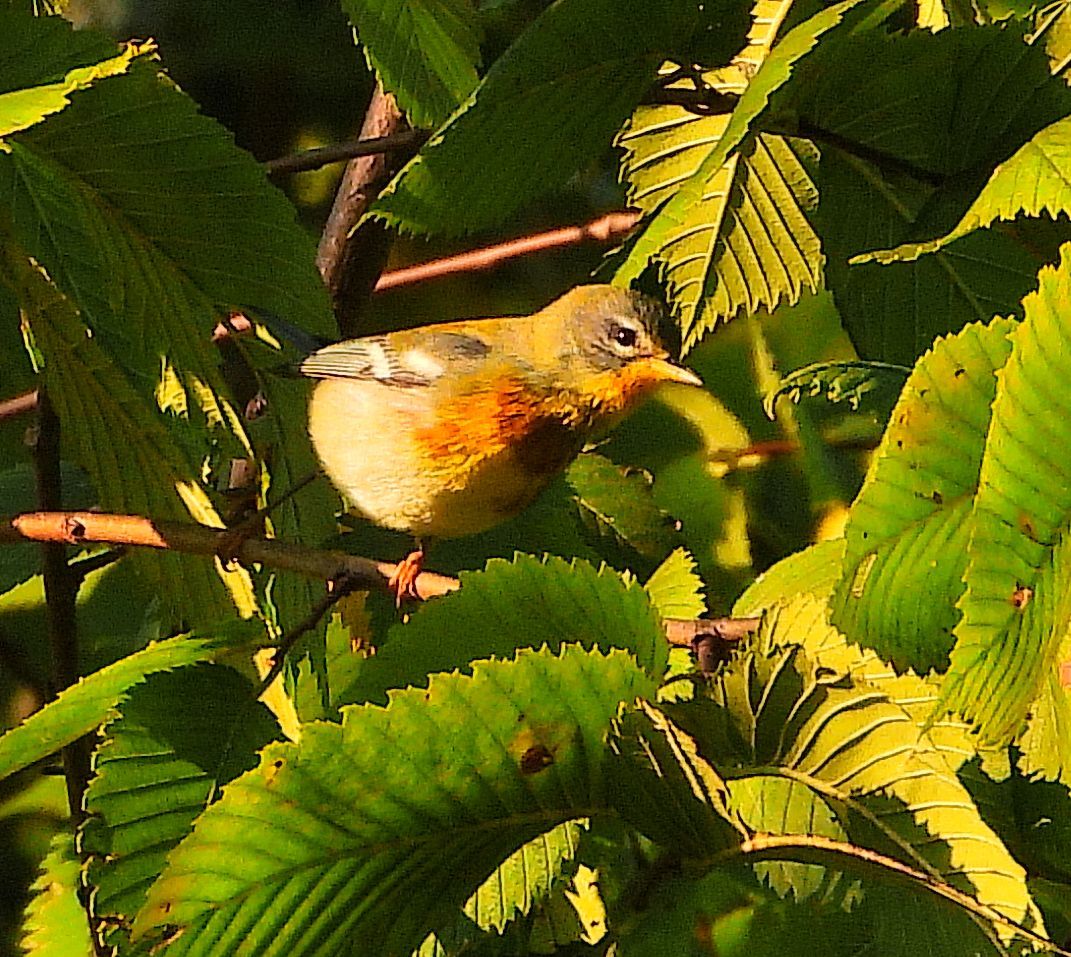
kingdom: Animalia
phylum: Chordata
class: Aves
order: Passeriformes
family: Parulidae
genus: Setophaga
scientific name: Setophaga americana
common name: Northern parula
